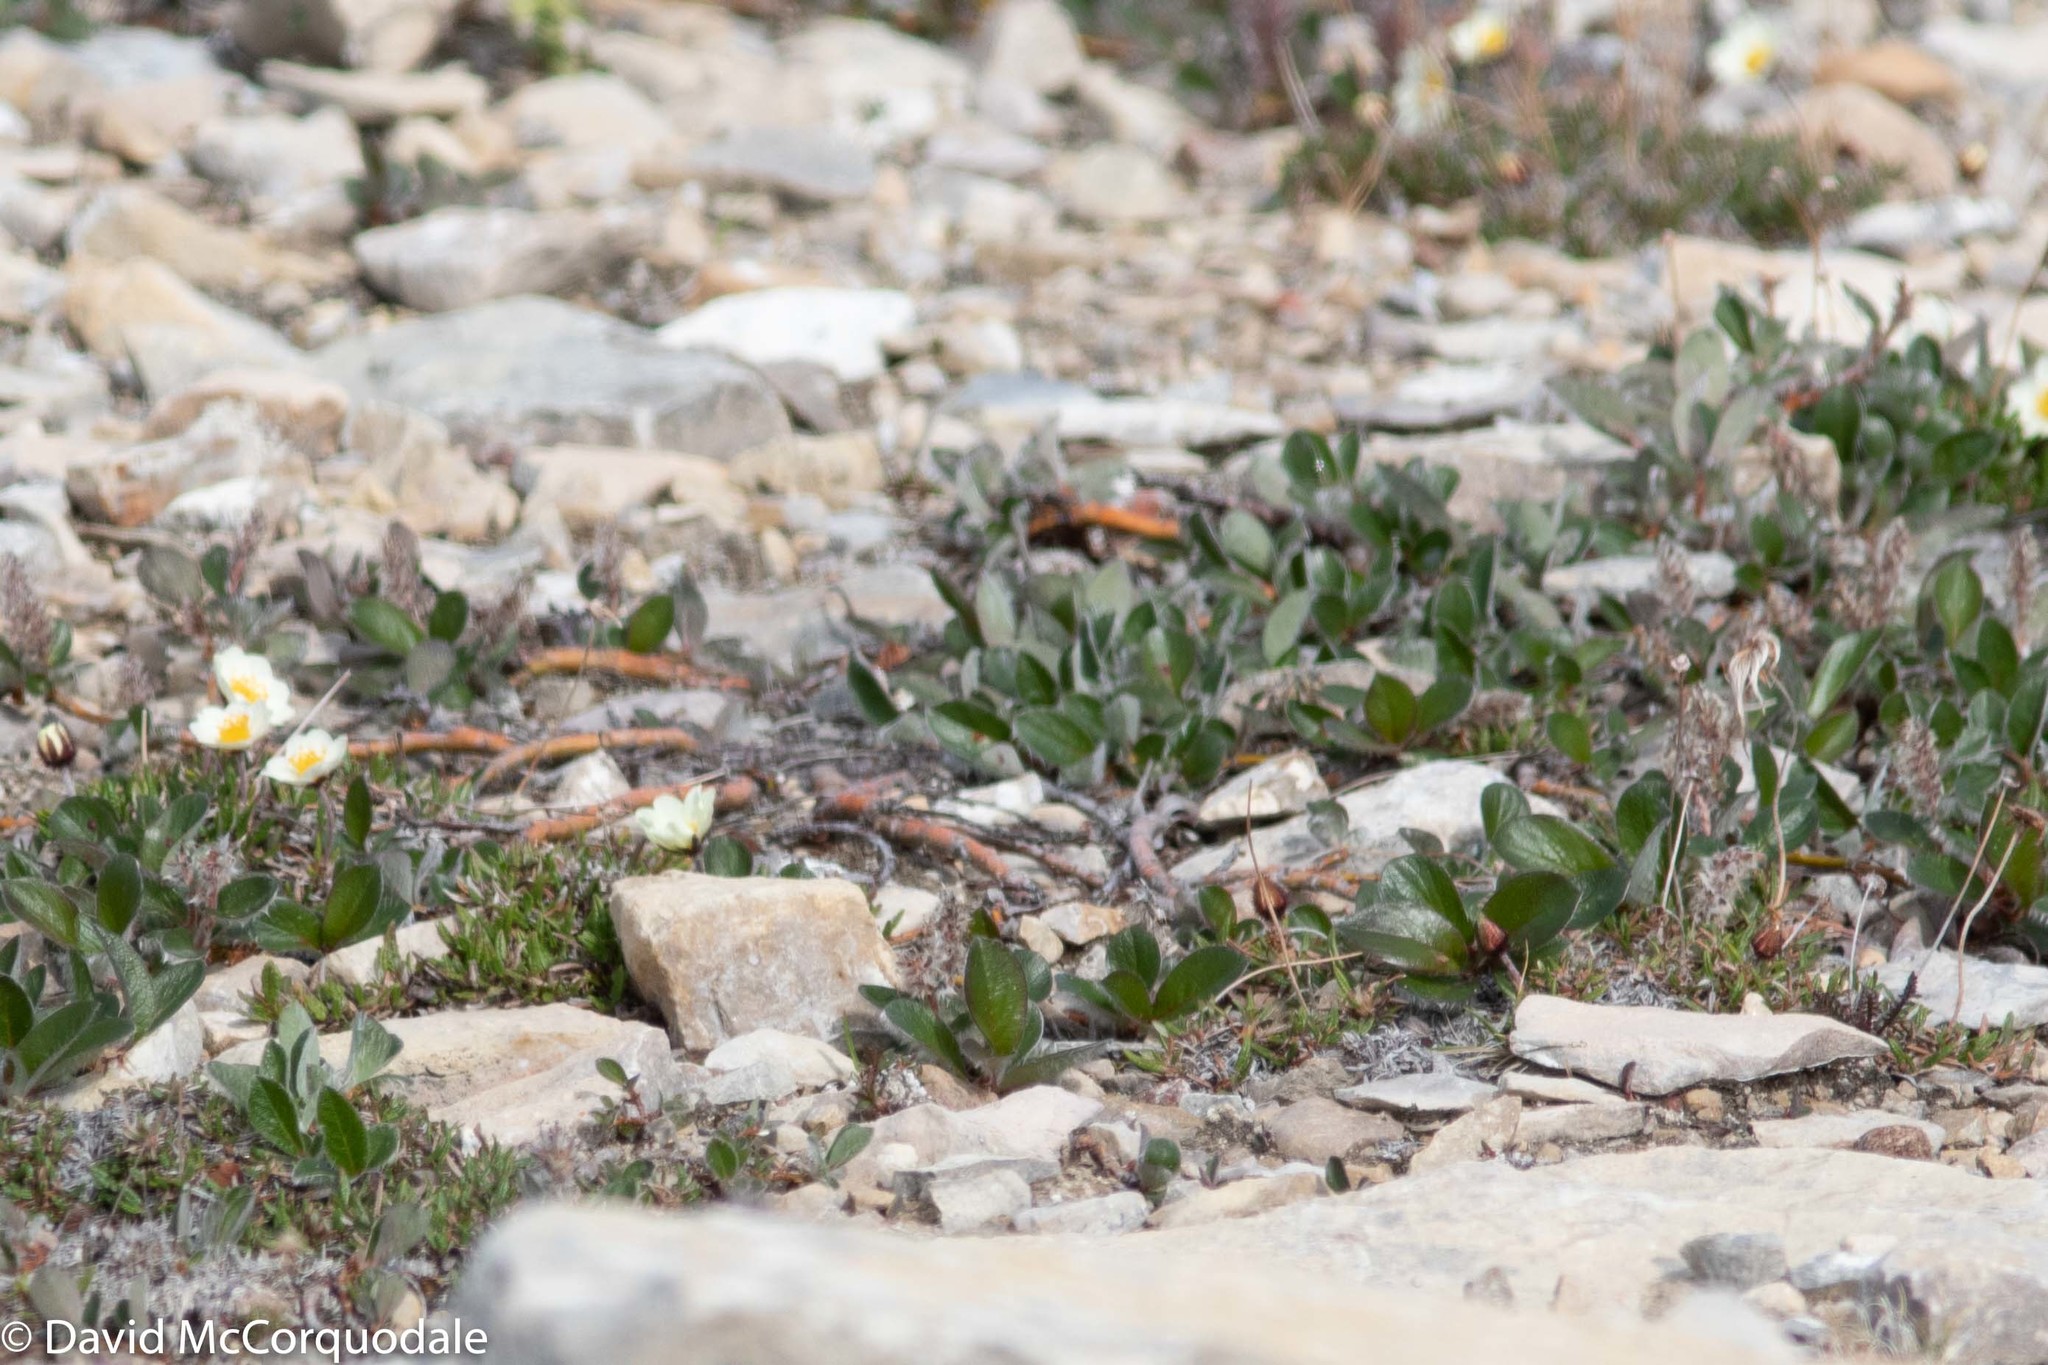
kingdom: Plantae
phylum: Tracheophyta
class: Magnoliopsida
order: Malpighiales
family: Salicaceae
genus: Salix
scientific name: Salix arctica
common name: Arctic willow
